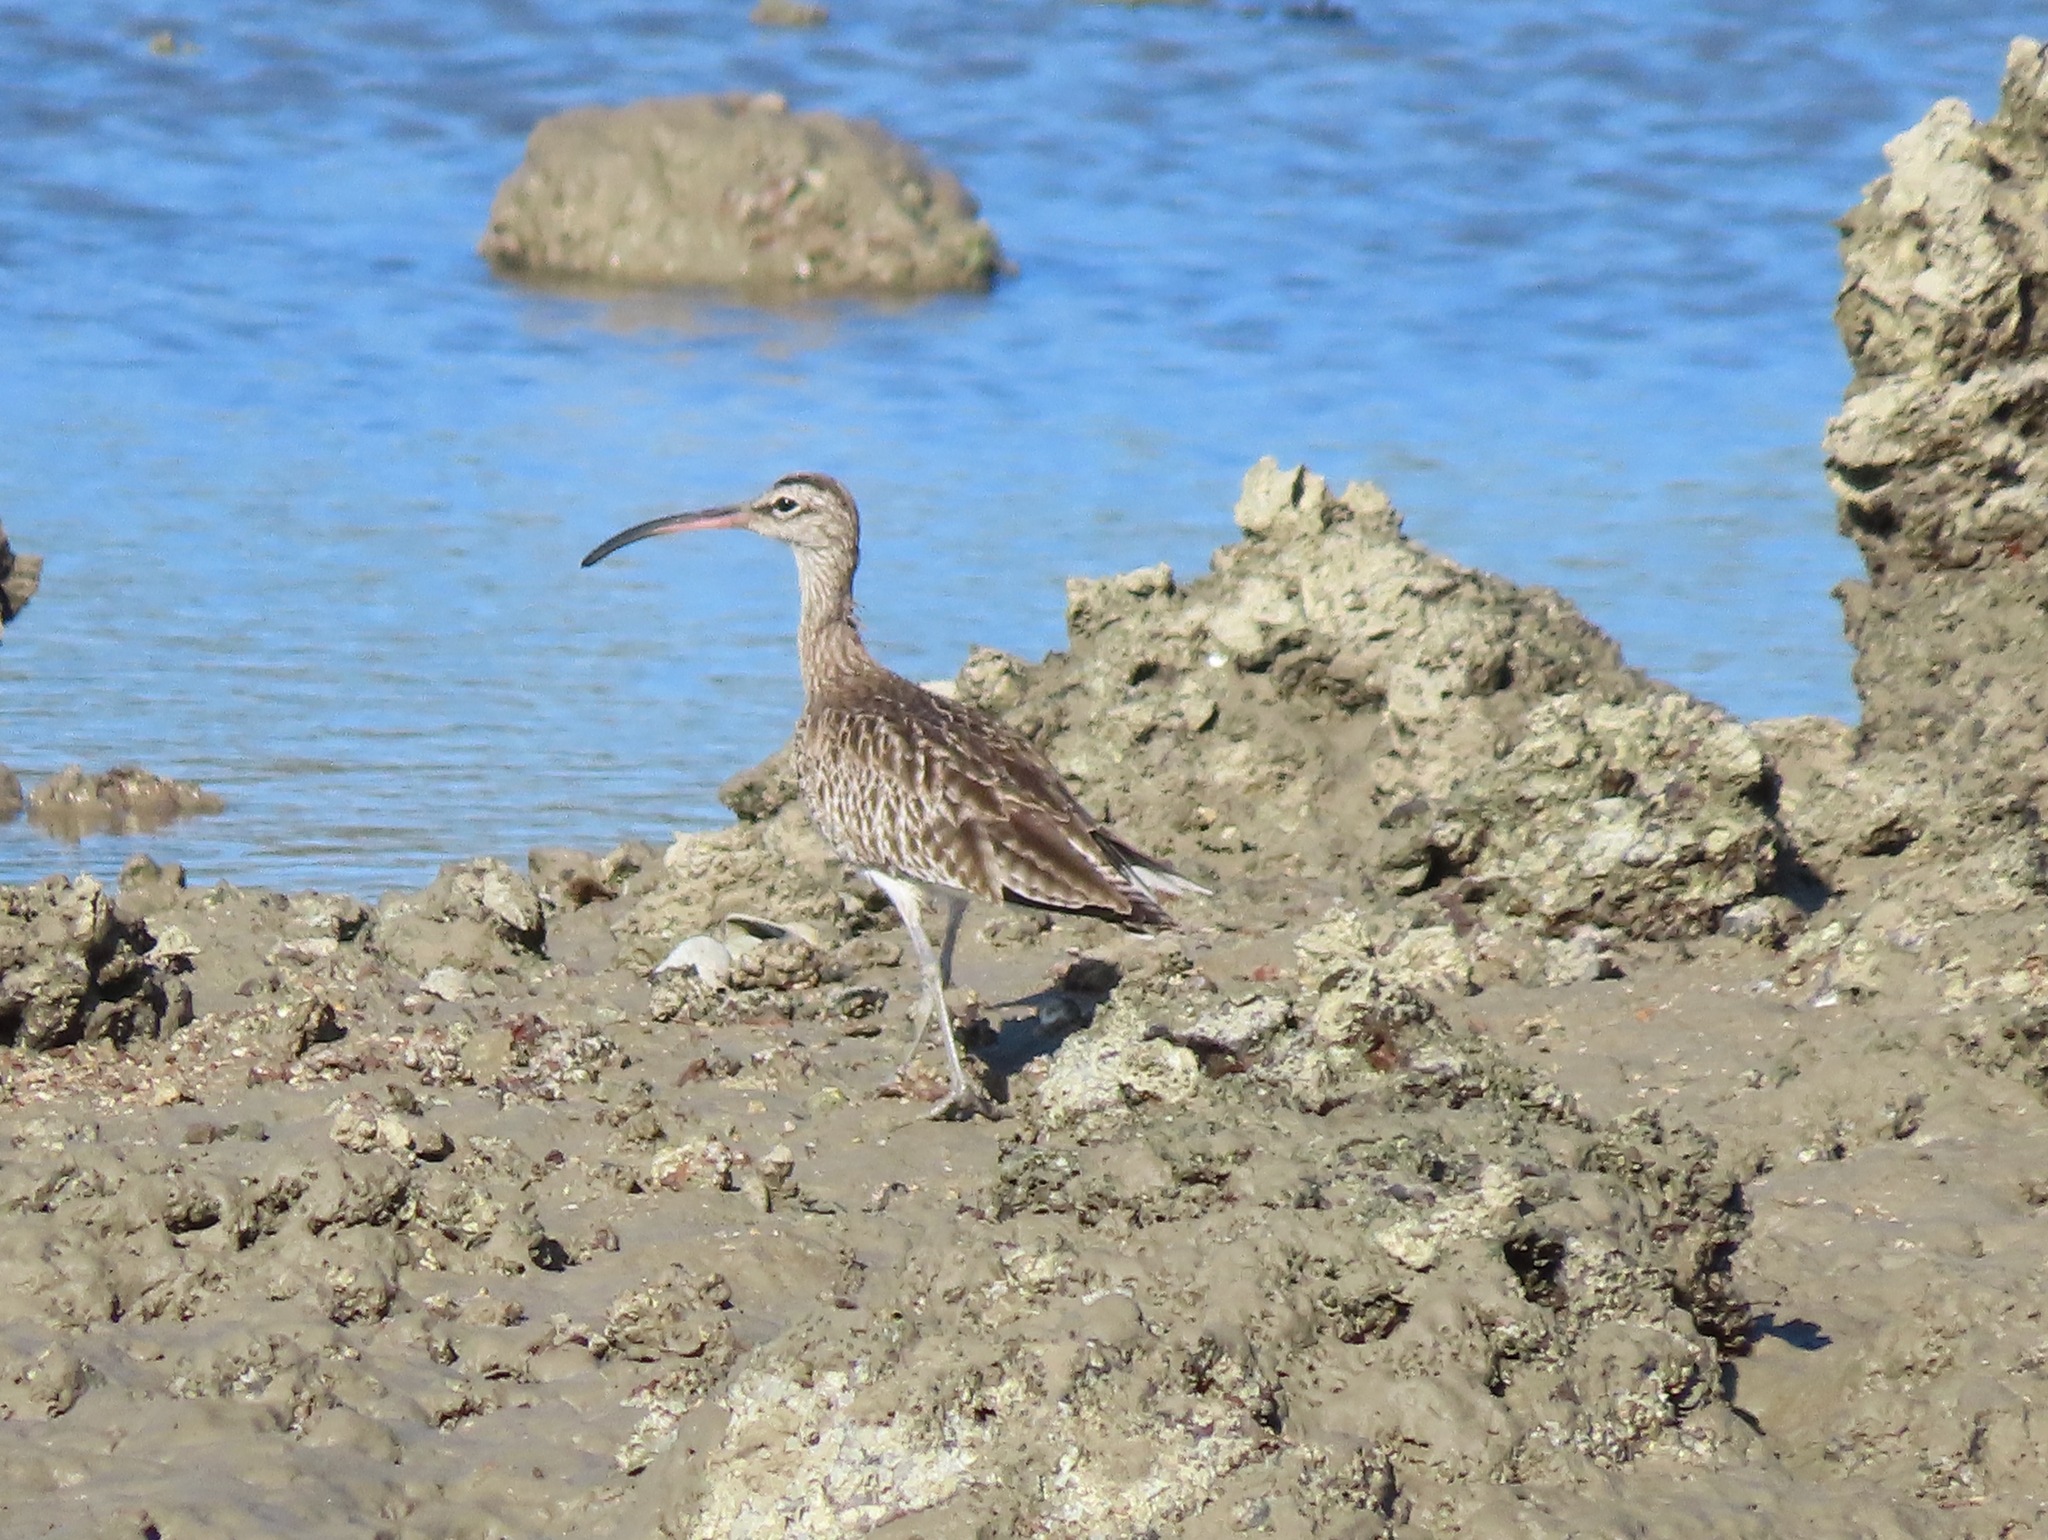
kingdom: Animalia
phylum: Chordata
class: Aves
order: Charadriiformes
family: Scolopacidae
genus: Numenius
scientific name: Numenius phaeopus
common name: Whimbrel
